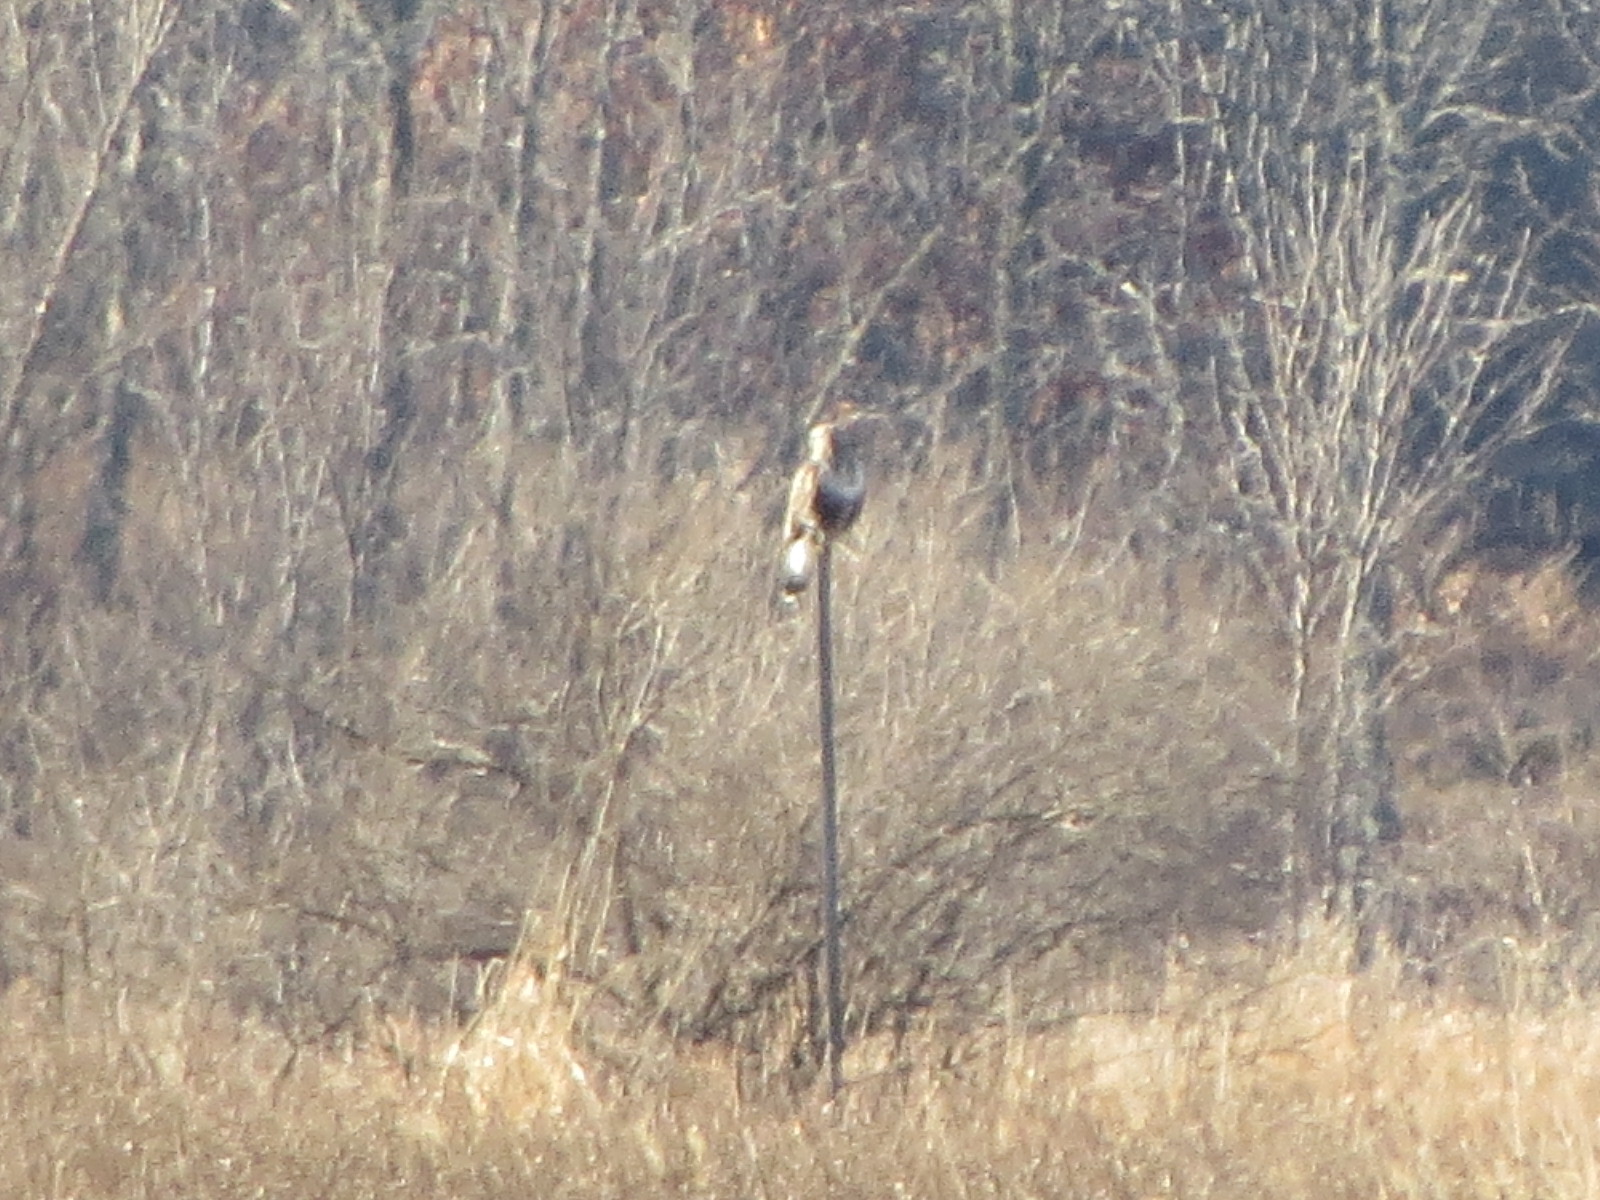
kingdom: Animalia
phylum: Chordata
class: Aves
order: Accipitriformes
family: Accipitridae
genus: Buteo
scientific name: Buteo lagopus
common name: Rough-legged buzzard
